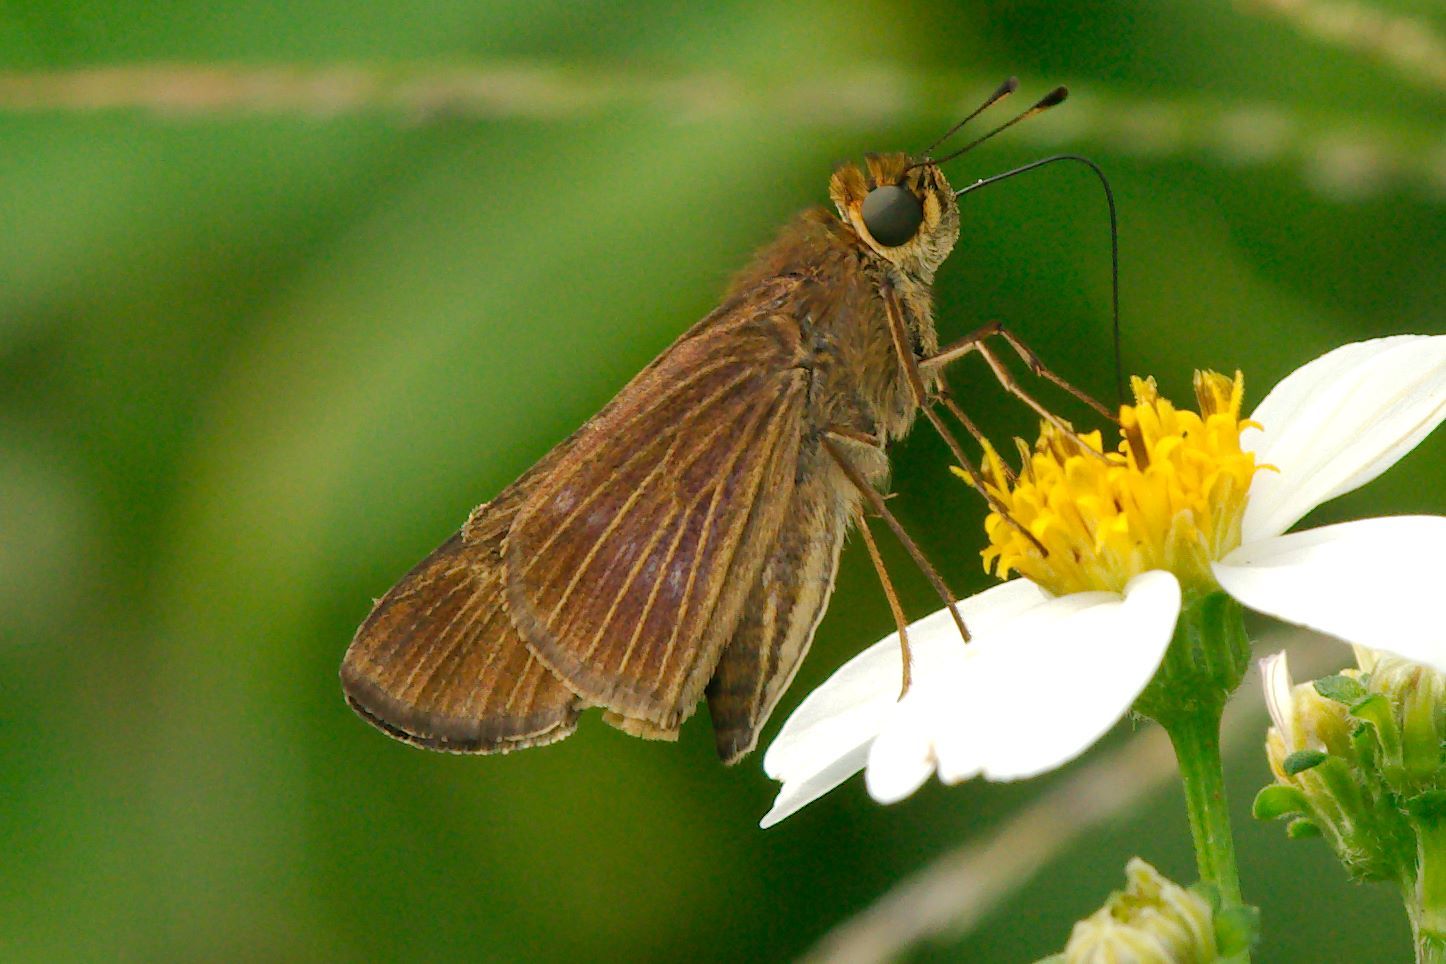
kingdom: Animalia
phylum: Arthropoda
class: Insecta
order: Lepidoptera
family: Hesperiidae
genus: Panoquina
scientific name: Panoquina ocola
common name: Ocola skipper
